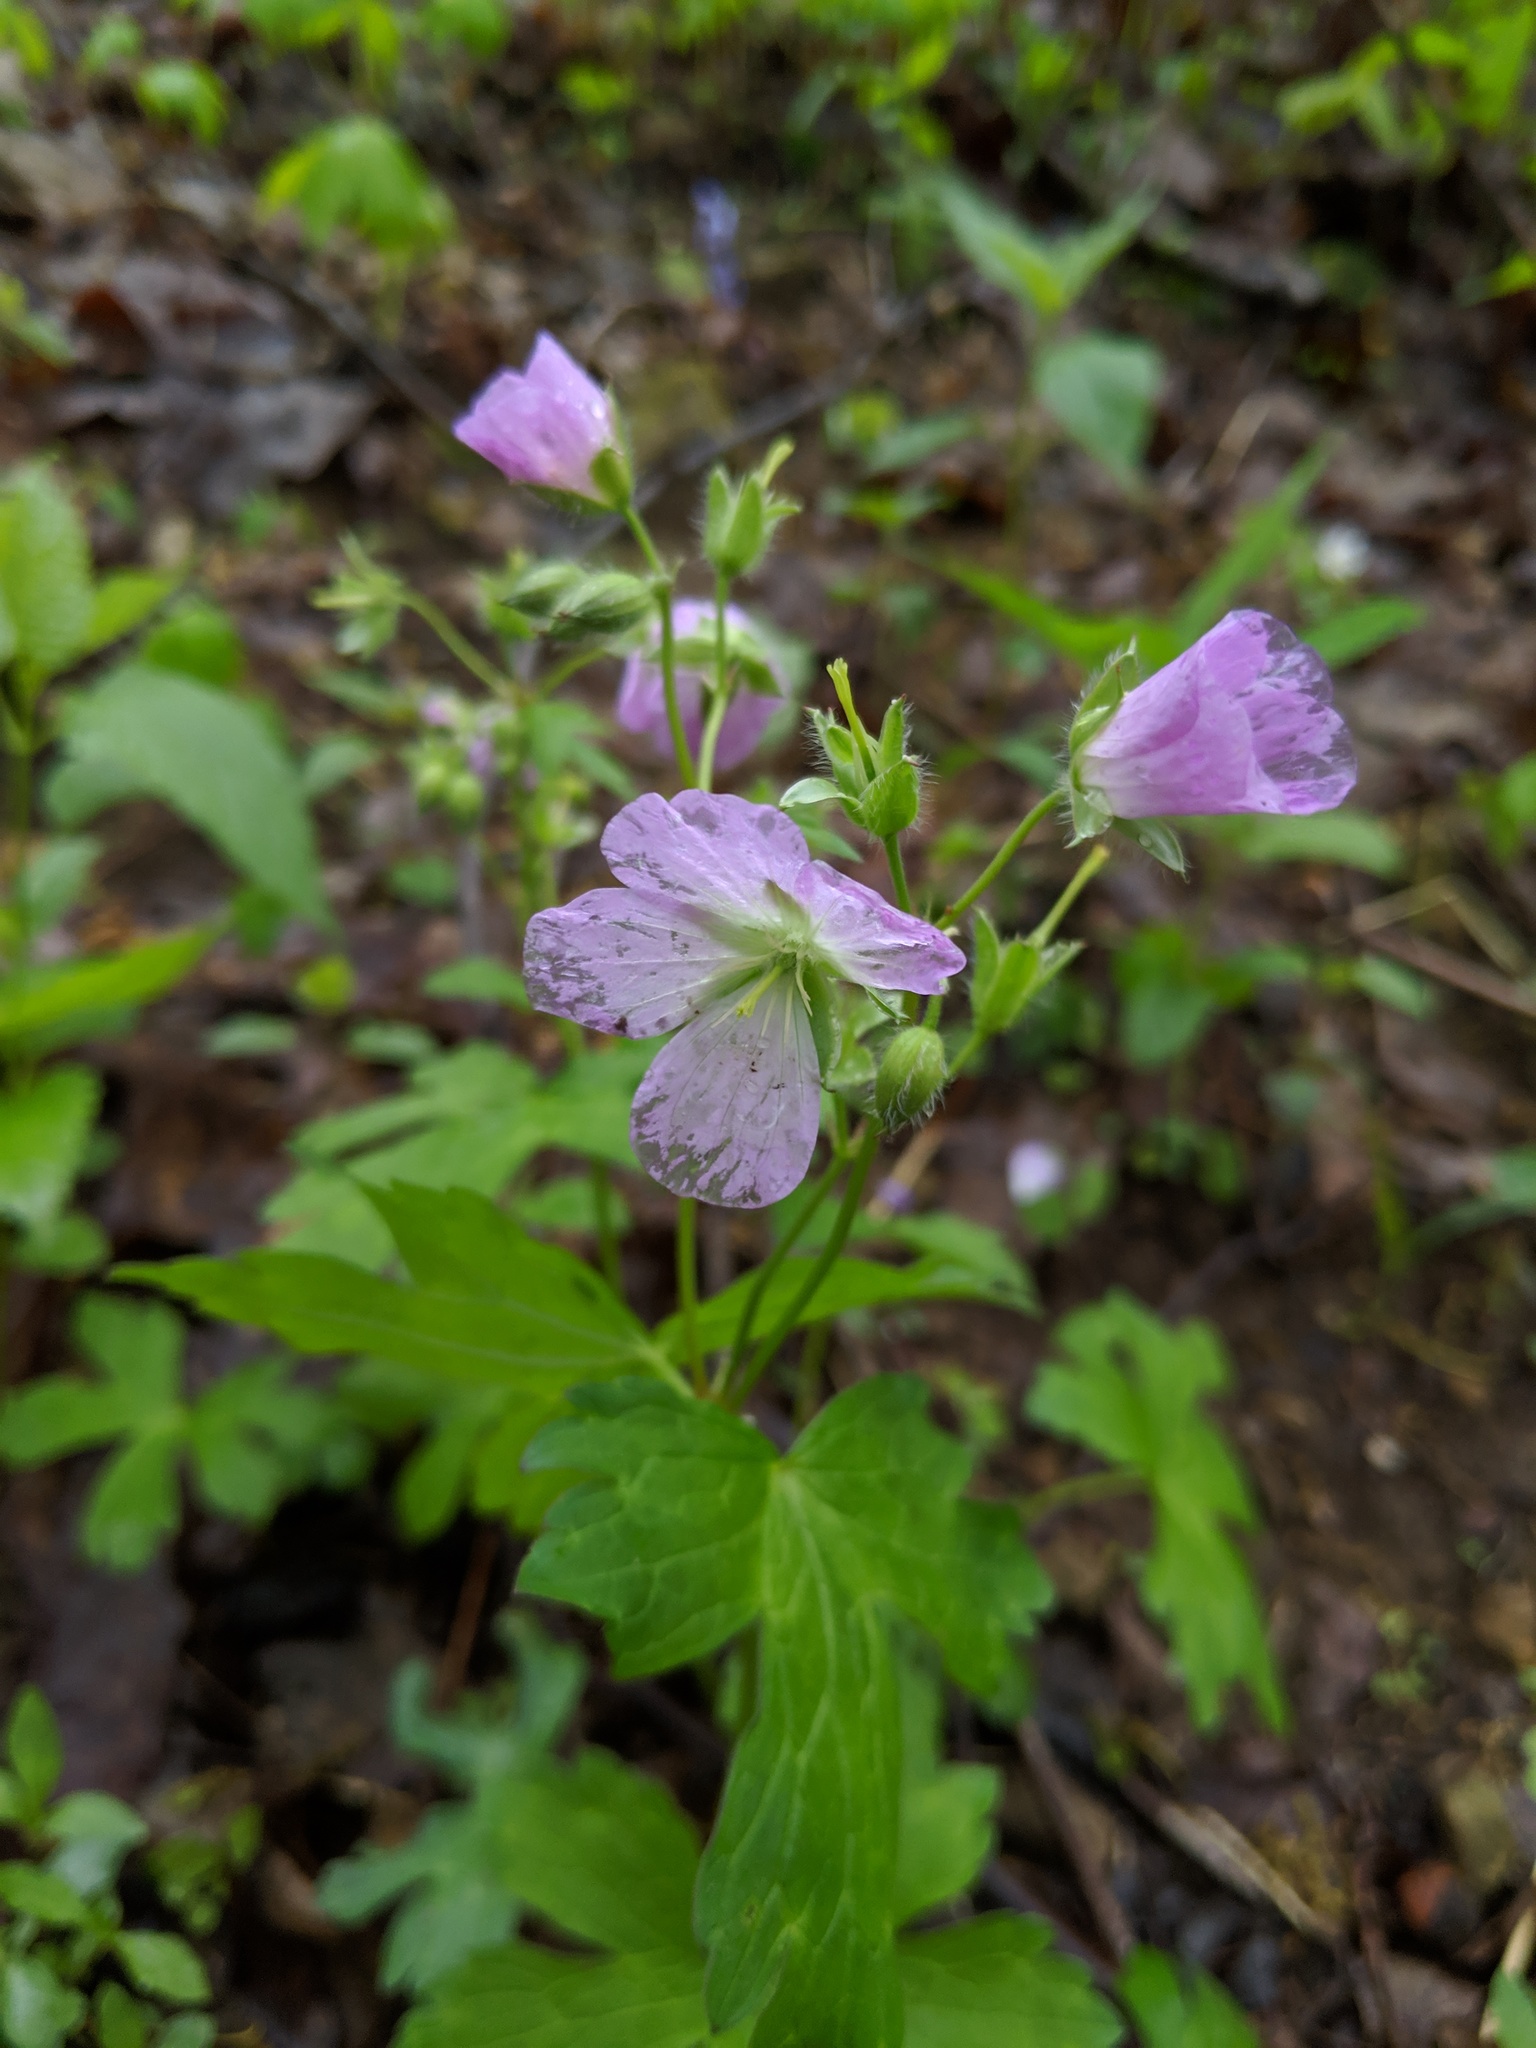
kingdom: Plantae
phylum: Tracheophyta
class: Magnoliopsida
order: Geraniales
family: Geraniaceae
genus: Geranium
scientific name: Geranium maculatum
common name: Spotted geranium
